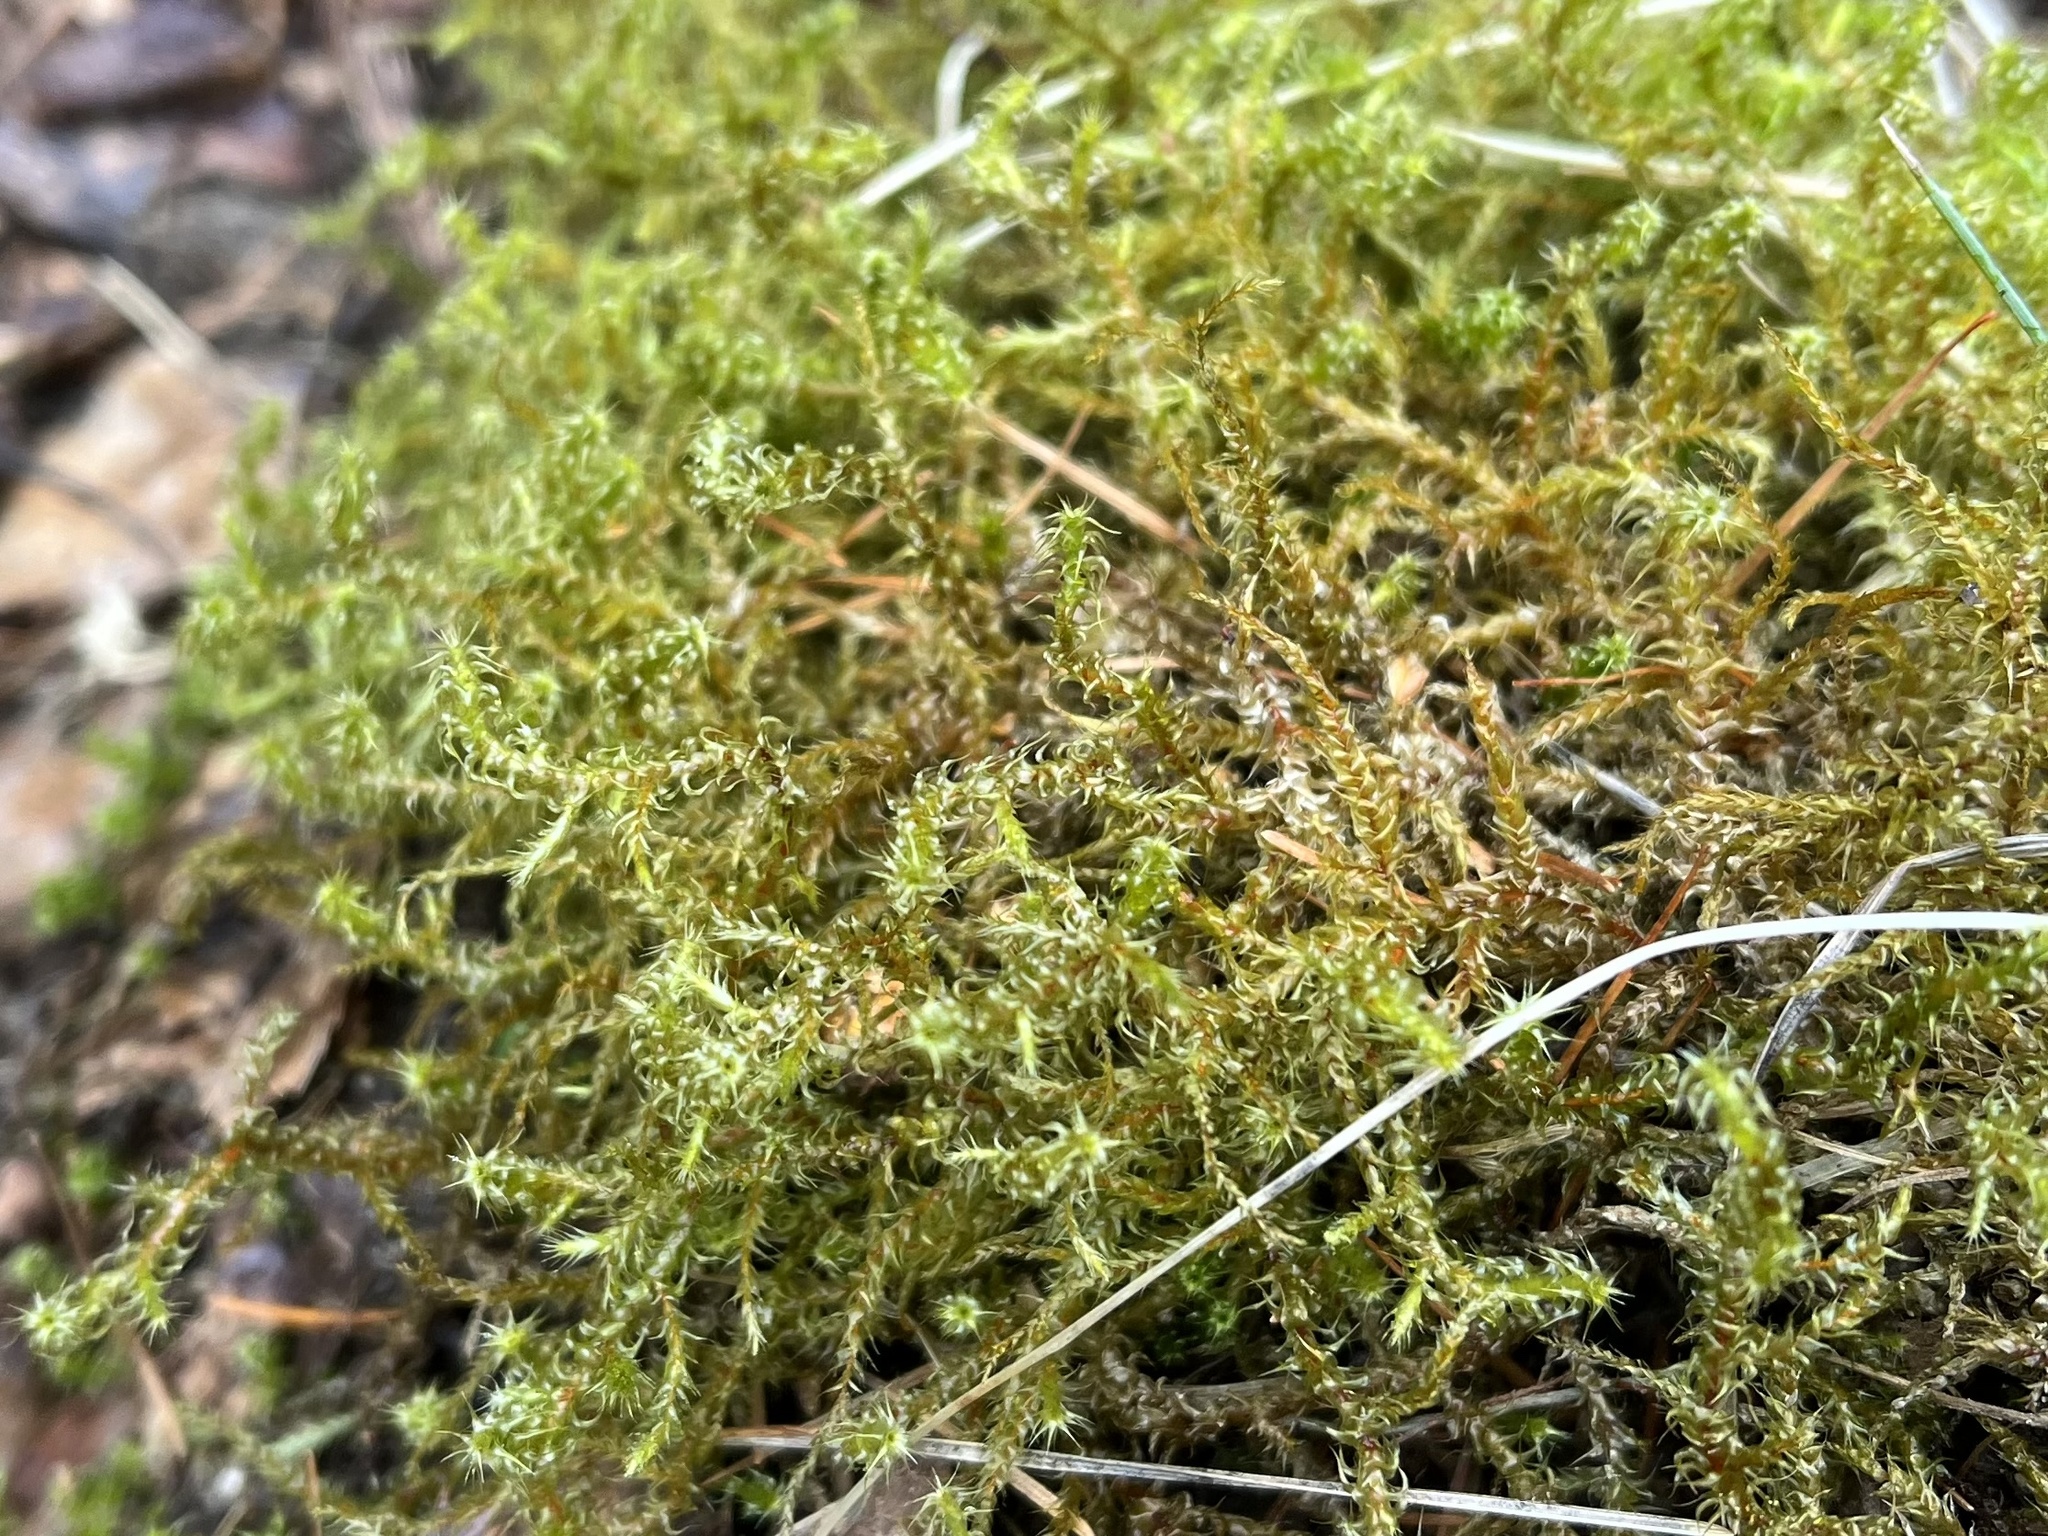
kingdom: Plantae
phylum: Bryophyta
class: Bryopsida
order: Hypnales
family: Hylocomiaceae
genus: Rhytidiadelphus
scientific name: Rhytidiadelphus squarrosus
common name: Springy turf-moss
